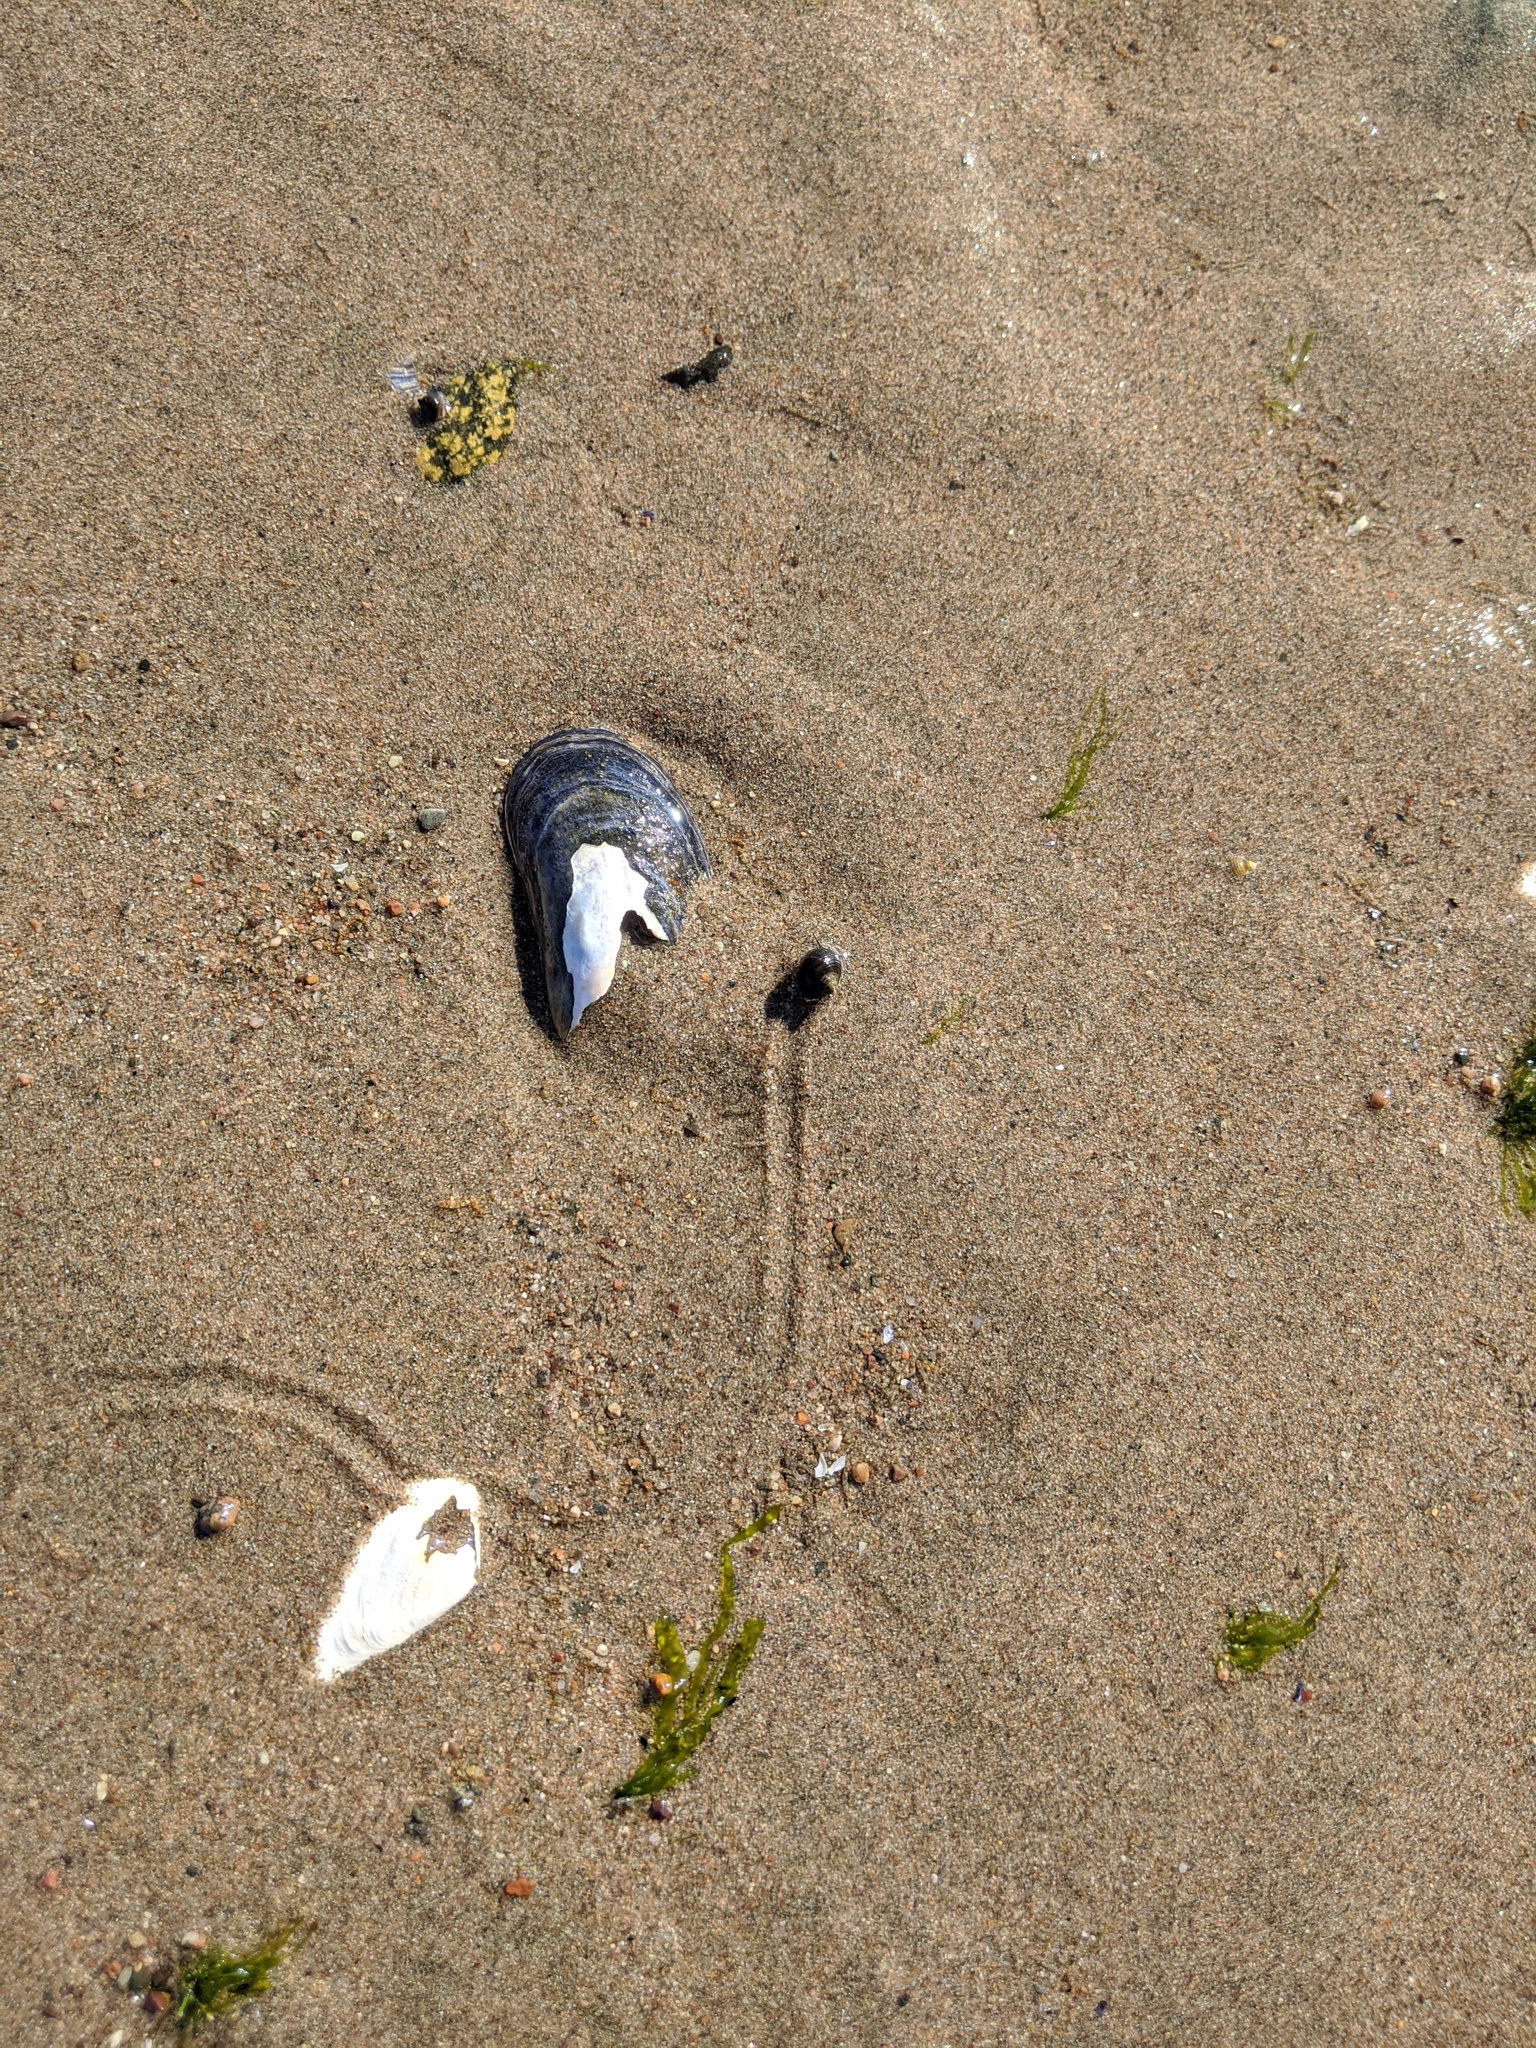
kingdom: Animalia
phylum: Mollusca
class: Gastropoda
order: Littorinimorpha
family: Littorinidae
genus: Littorina
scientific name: Littorina littorea
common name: Common periwinkle
